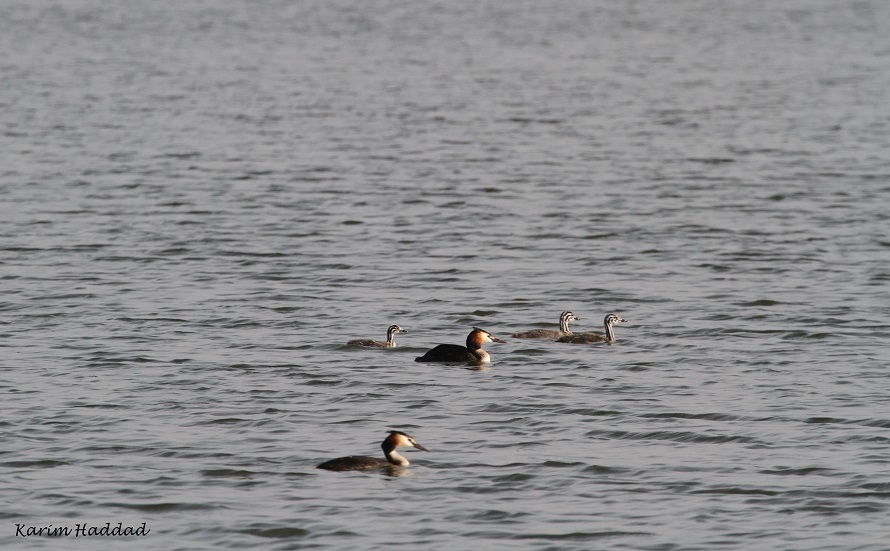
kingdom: Animalia
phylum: Chordata
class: Aves
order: Podicipediformes
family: Podicipedidae
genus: Podiceps
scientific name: Podiceps cristatus
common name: Great crested grebe
